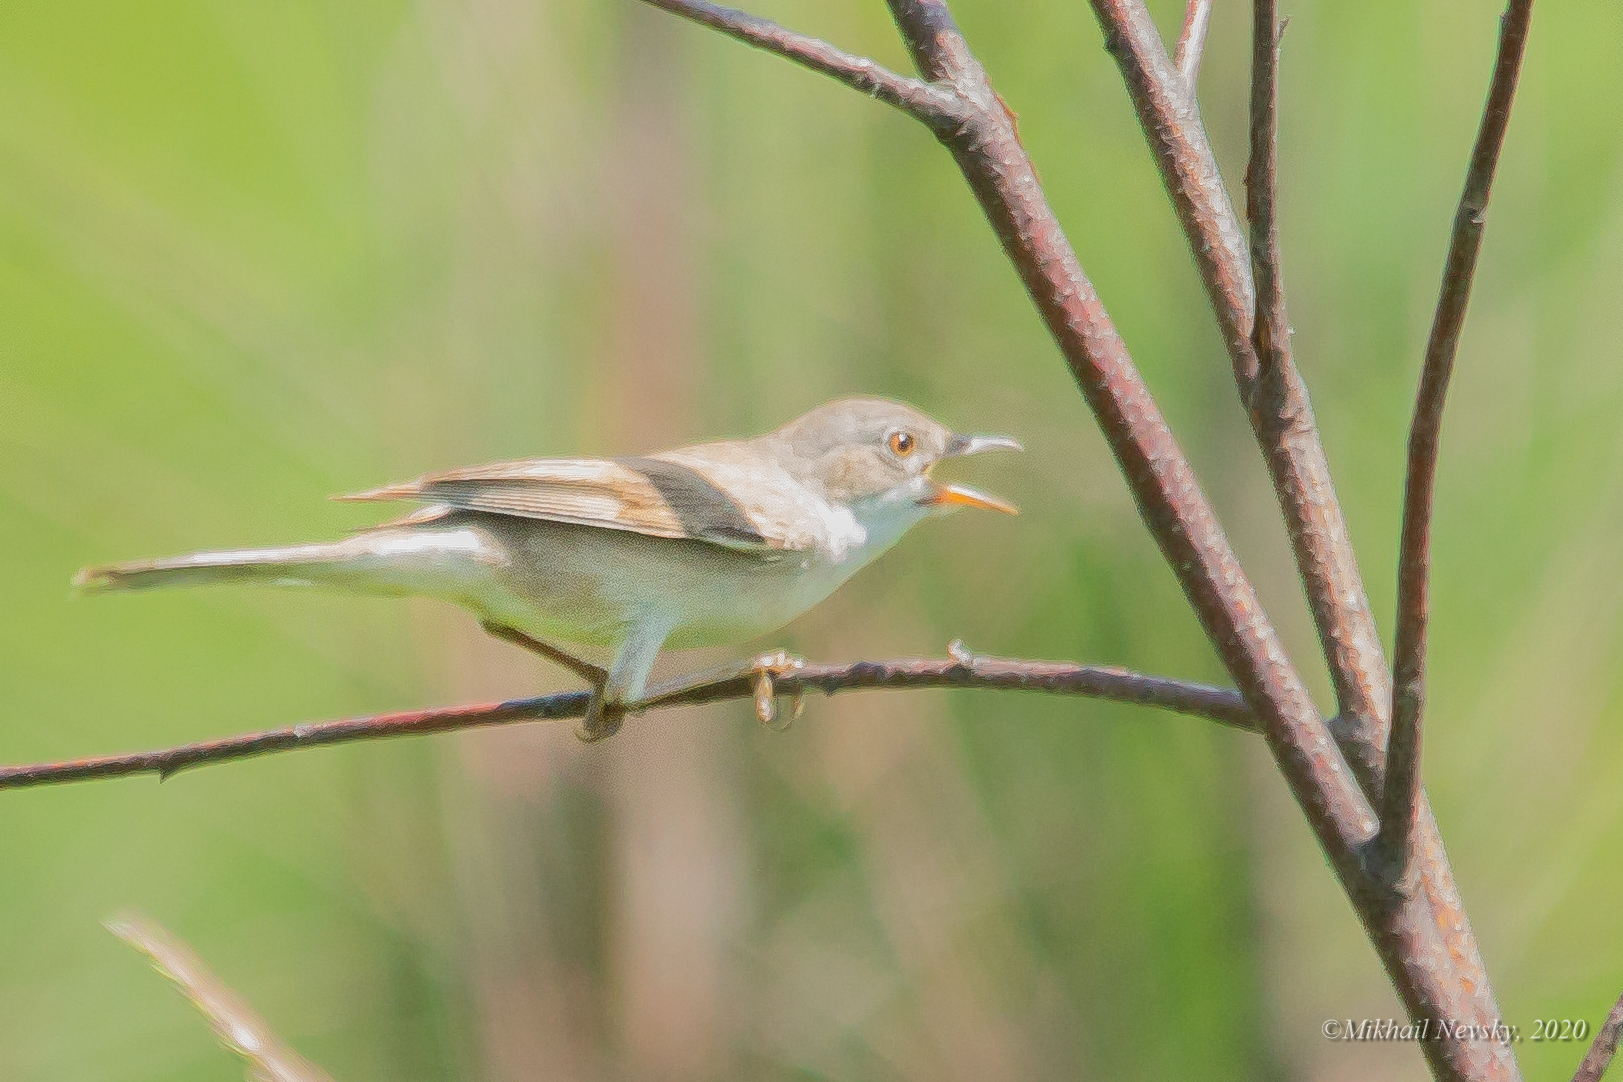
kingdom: Animalia
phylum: Chordata
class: Aves
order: Passeriformes
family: Sylviidae
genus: Sylvia
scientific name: Sylvia communis
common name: Common whitethroat
